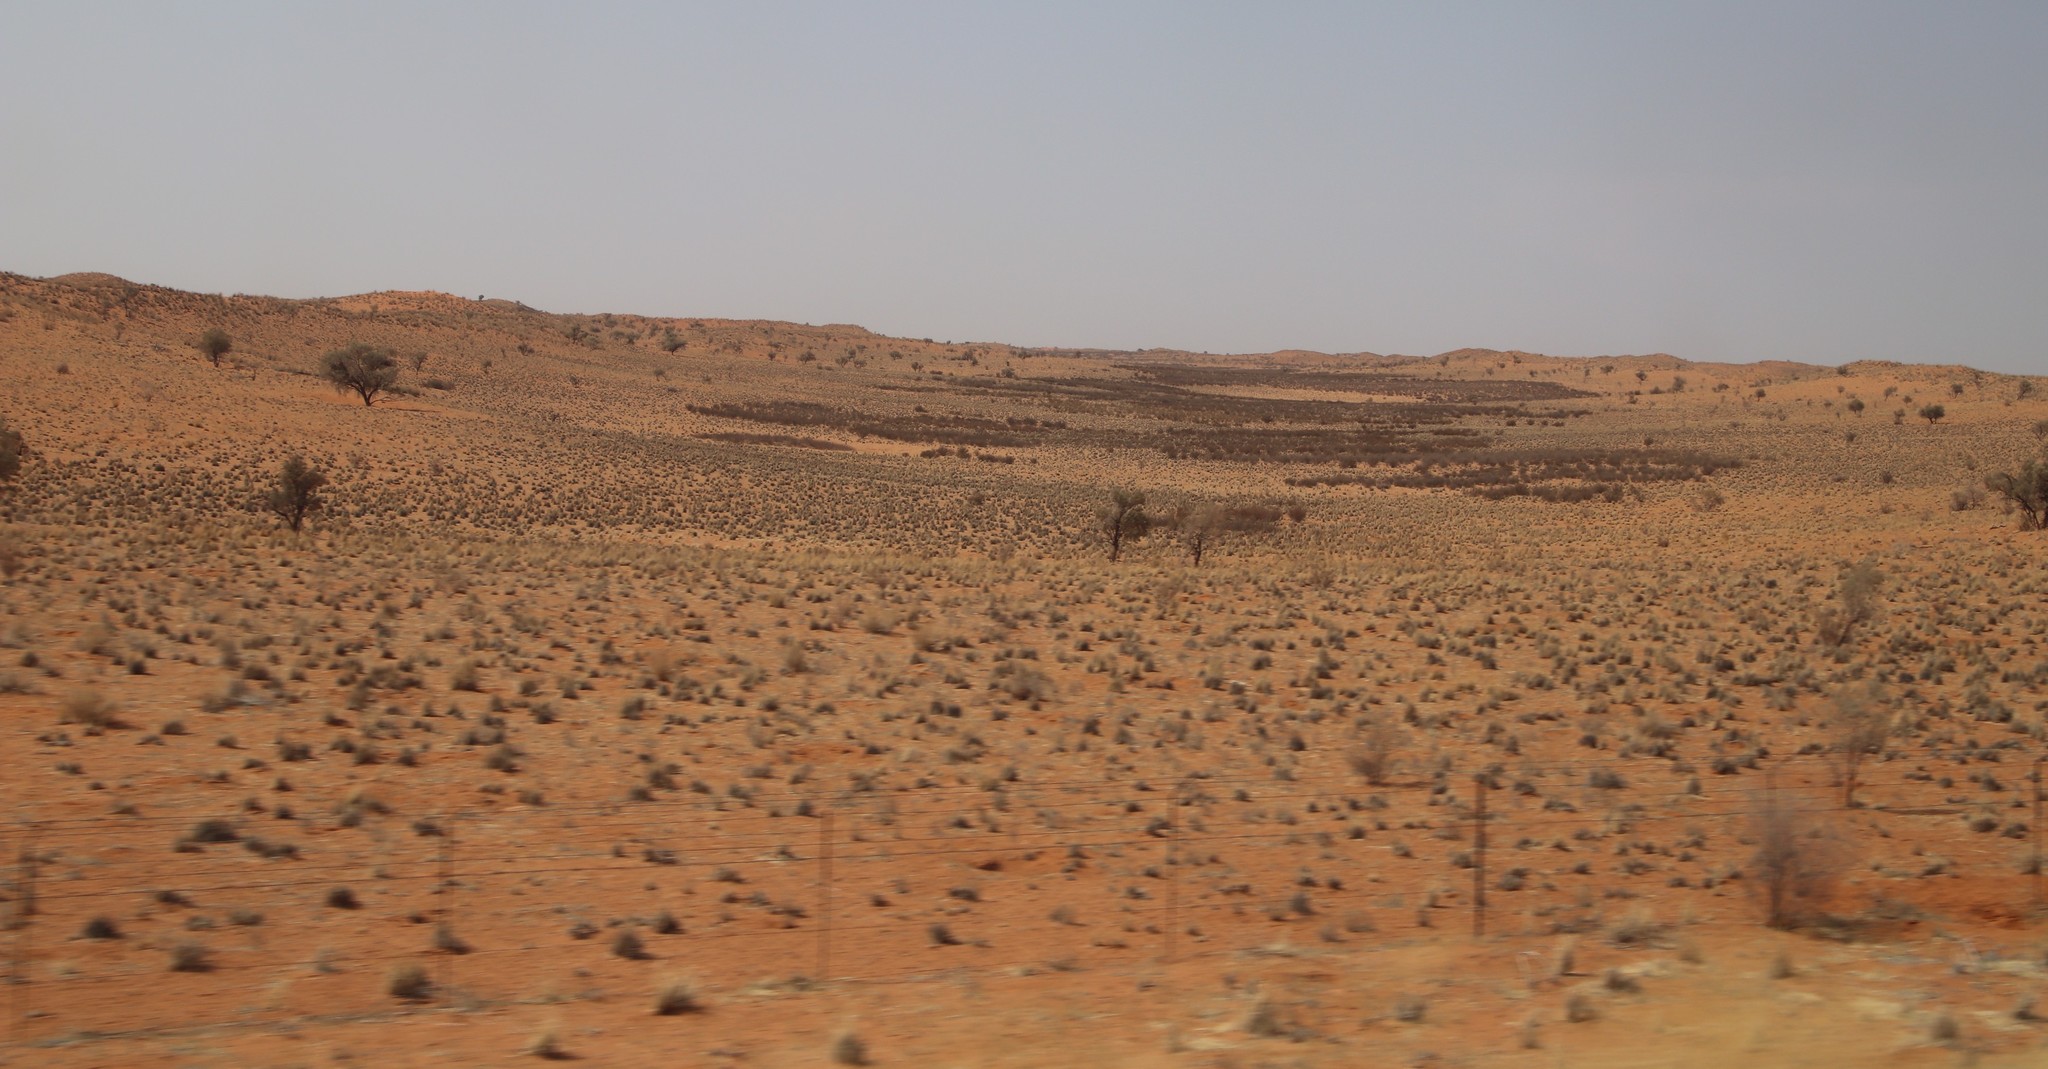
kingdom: Plantae
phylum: Tracheophyta
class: Magnoliopsida
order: Lamiales
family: Bignoniaceae
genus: Rhigozum
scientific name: Rhigozum trichotomum
